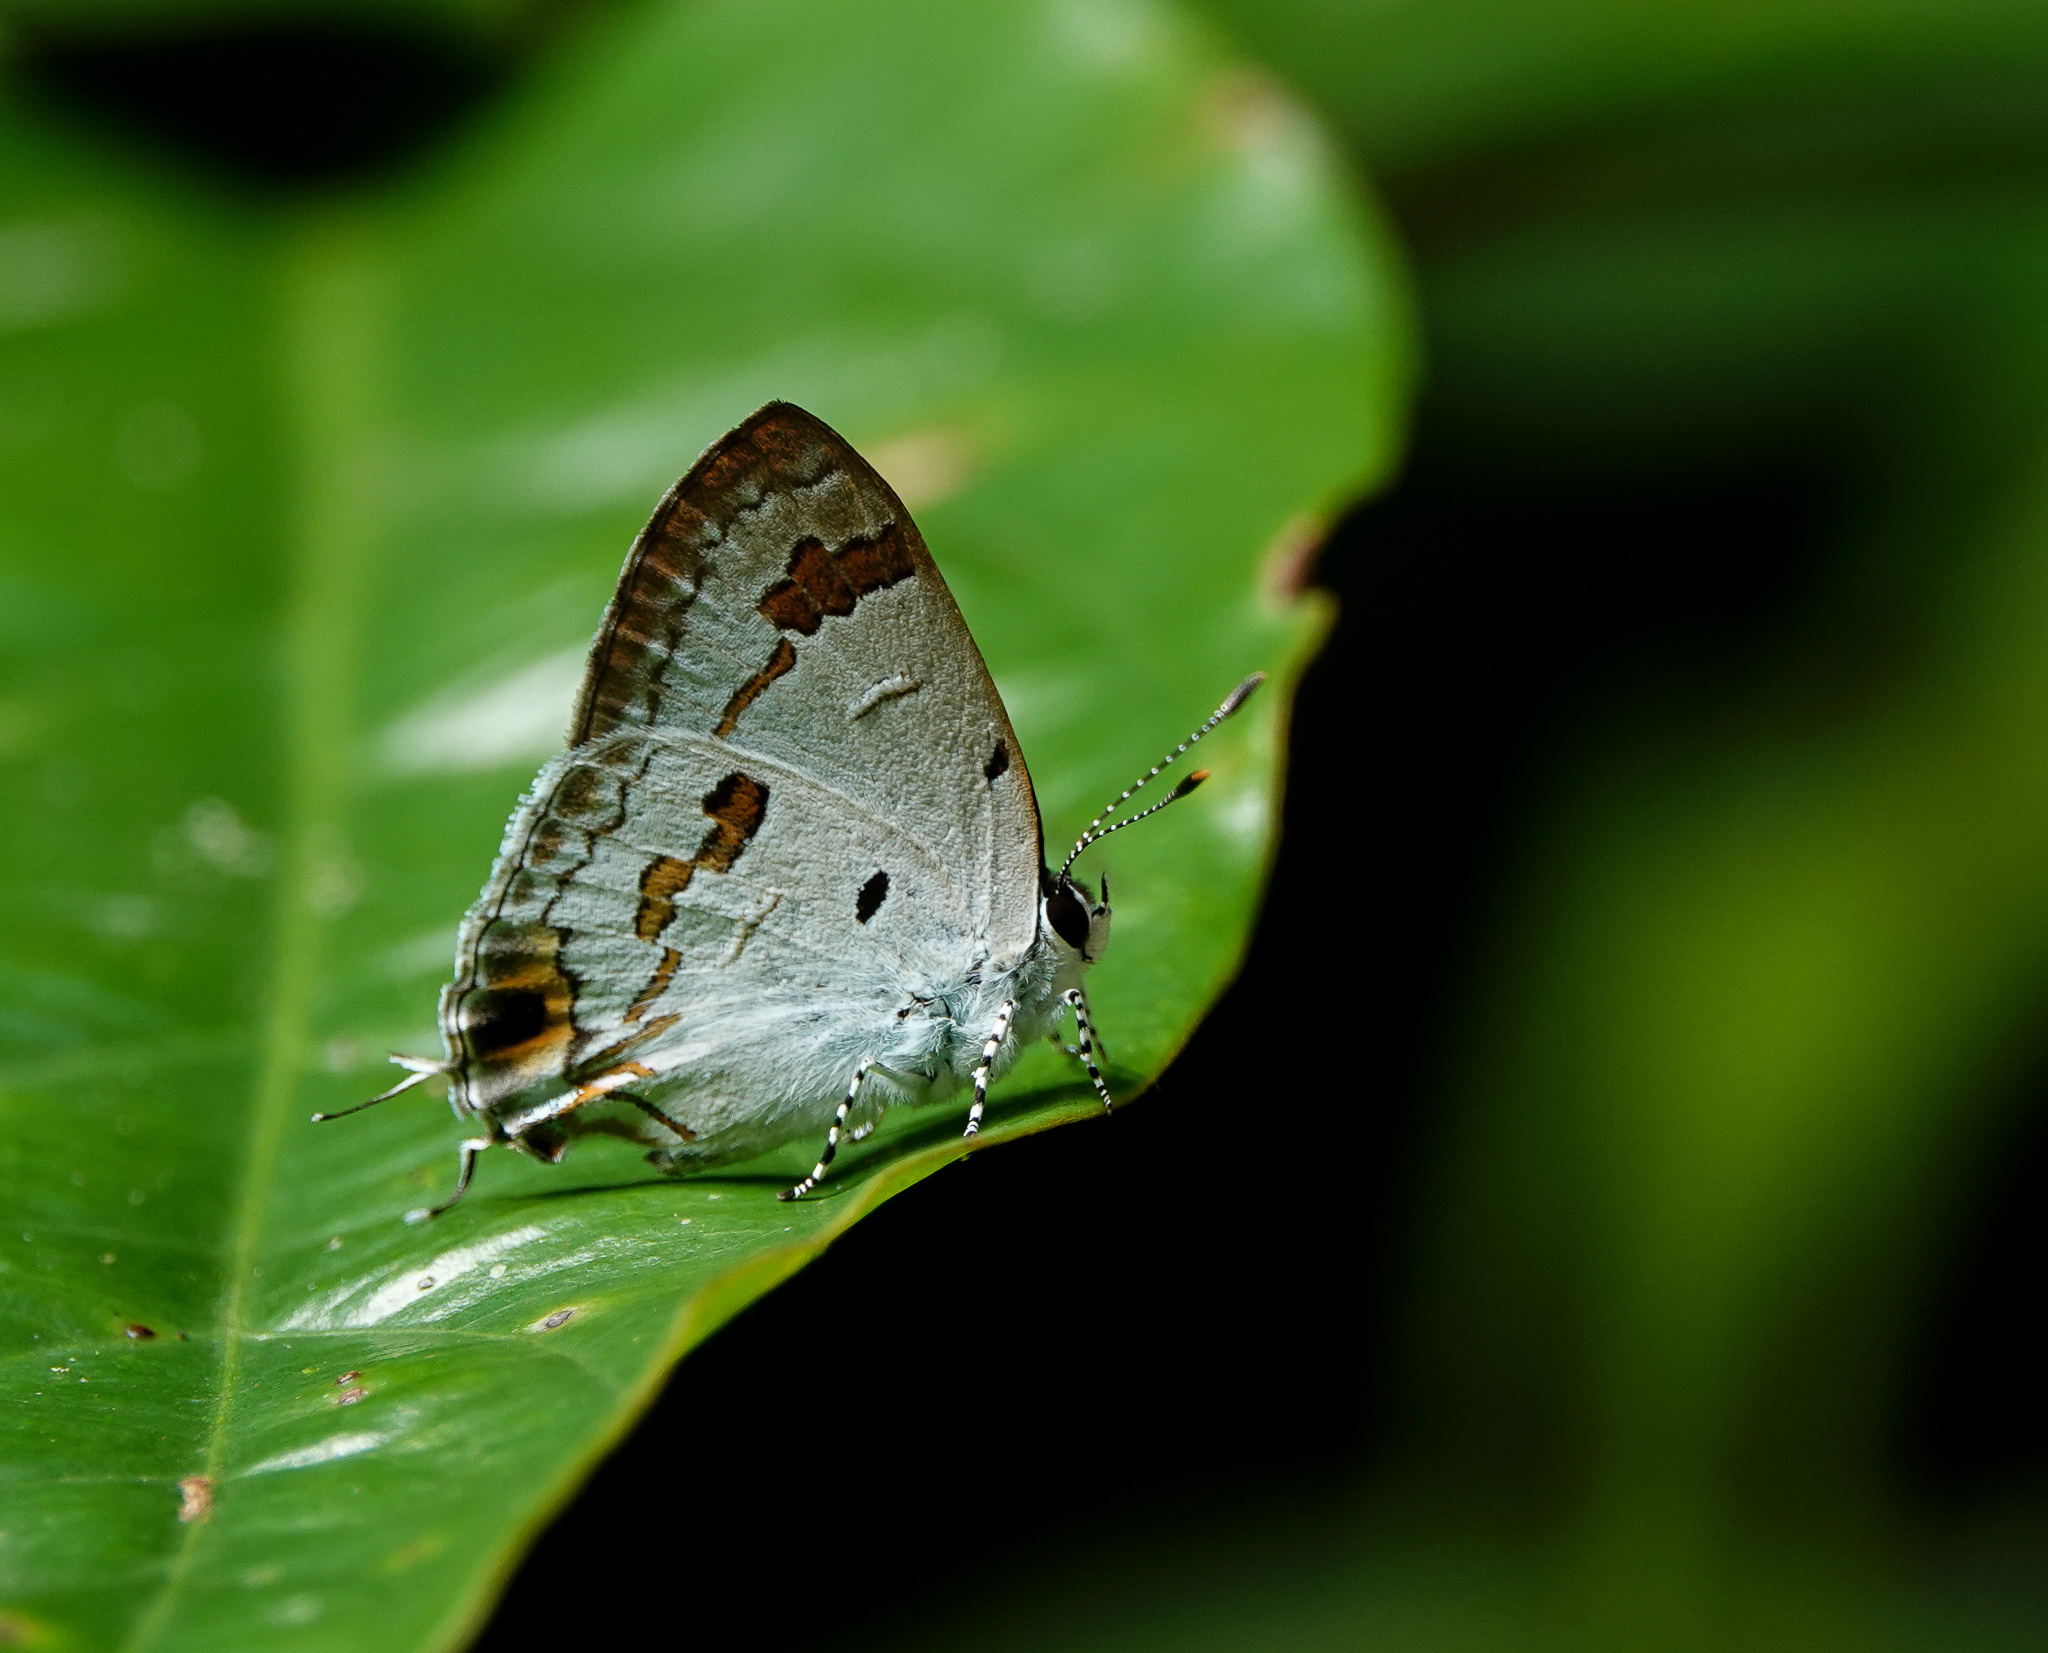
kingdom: Animalia
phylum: Arthropoda
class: Insecta
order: Lepidoptera
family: Lycaenidae
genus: Chliaria
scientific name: Chliaria othona
